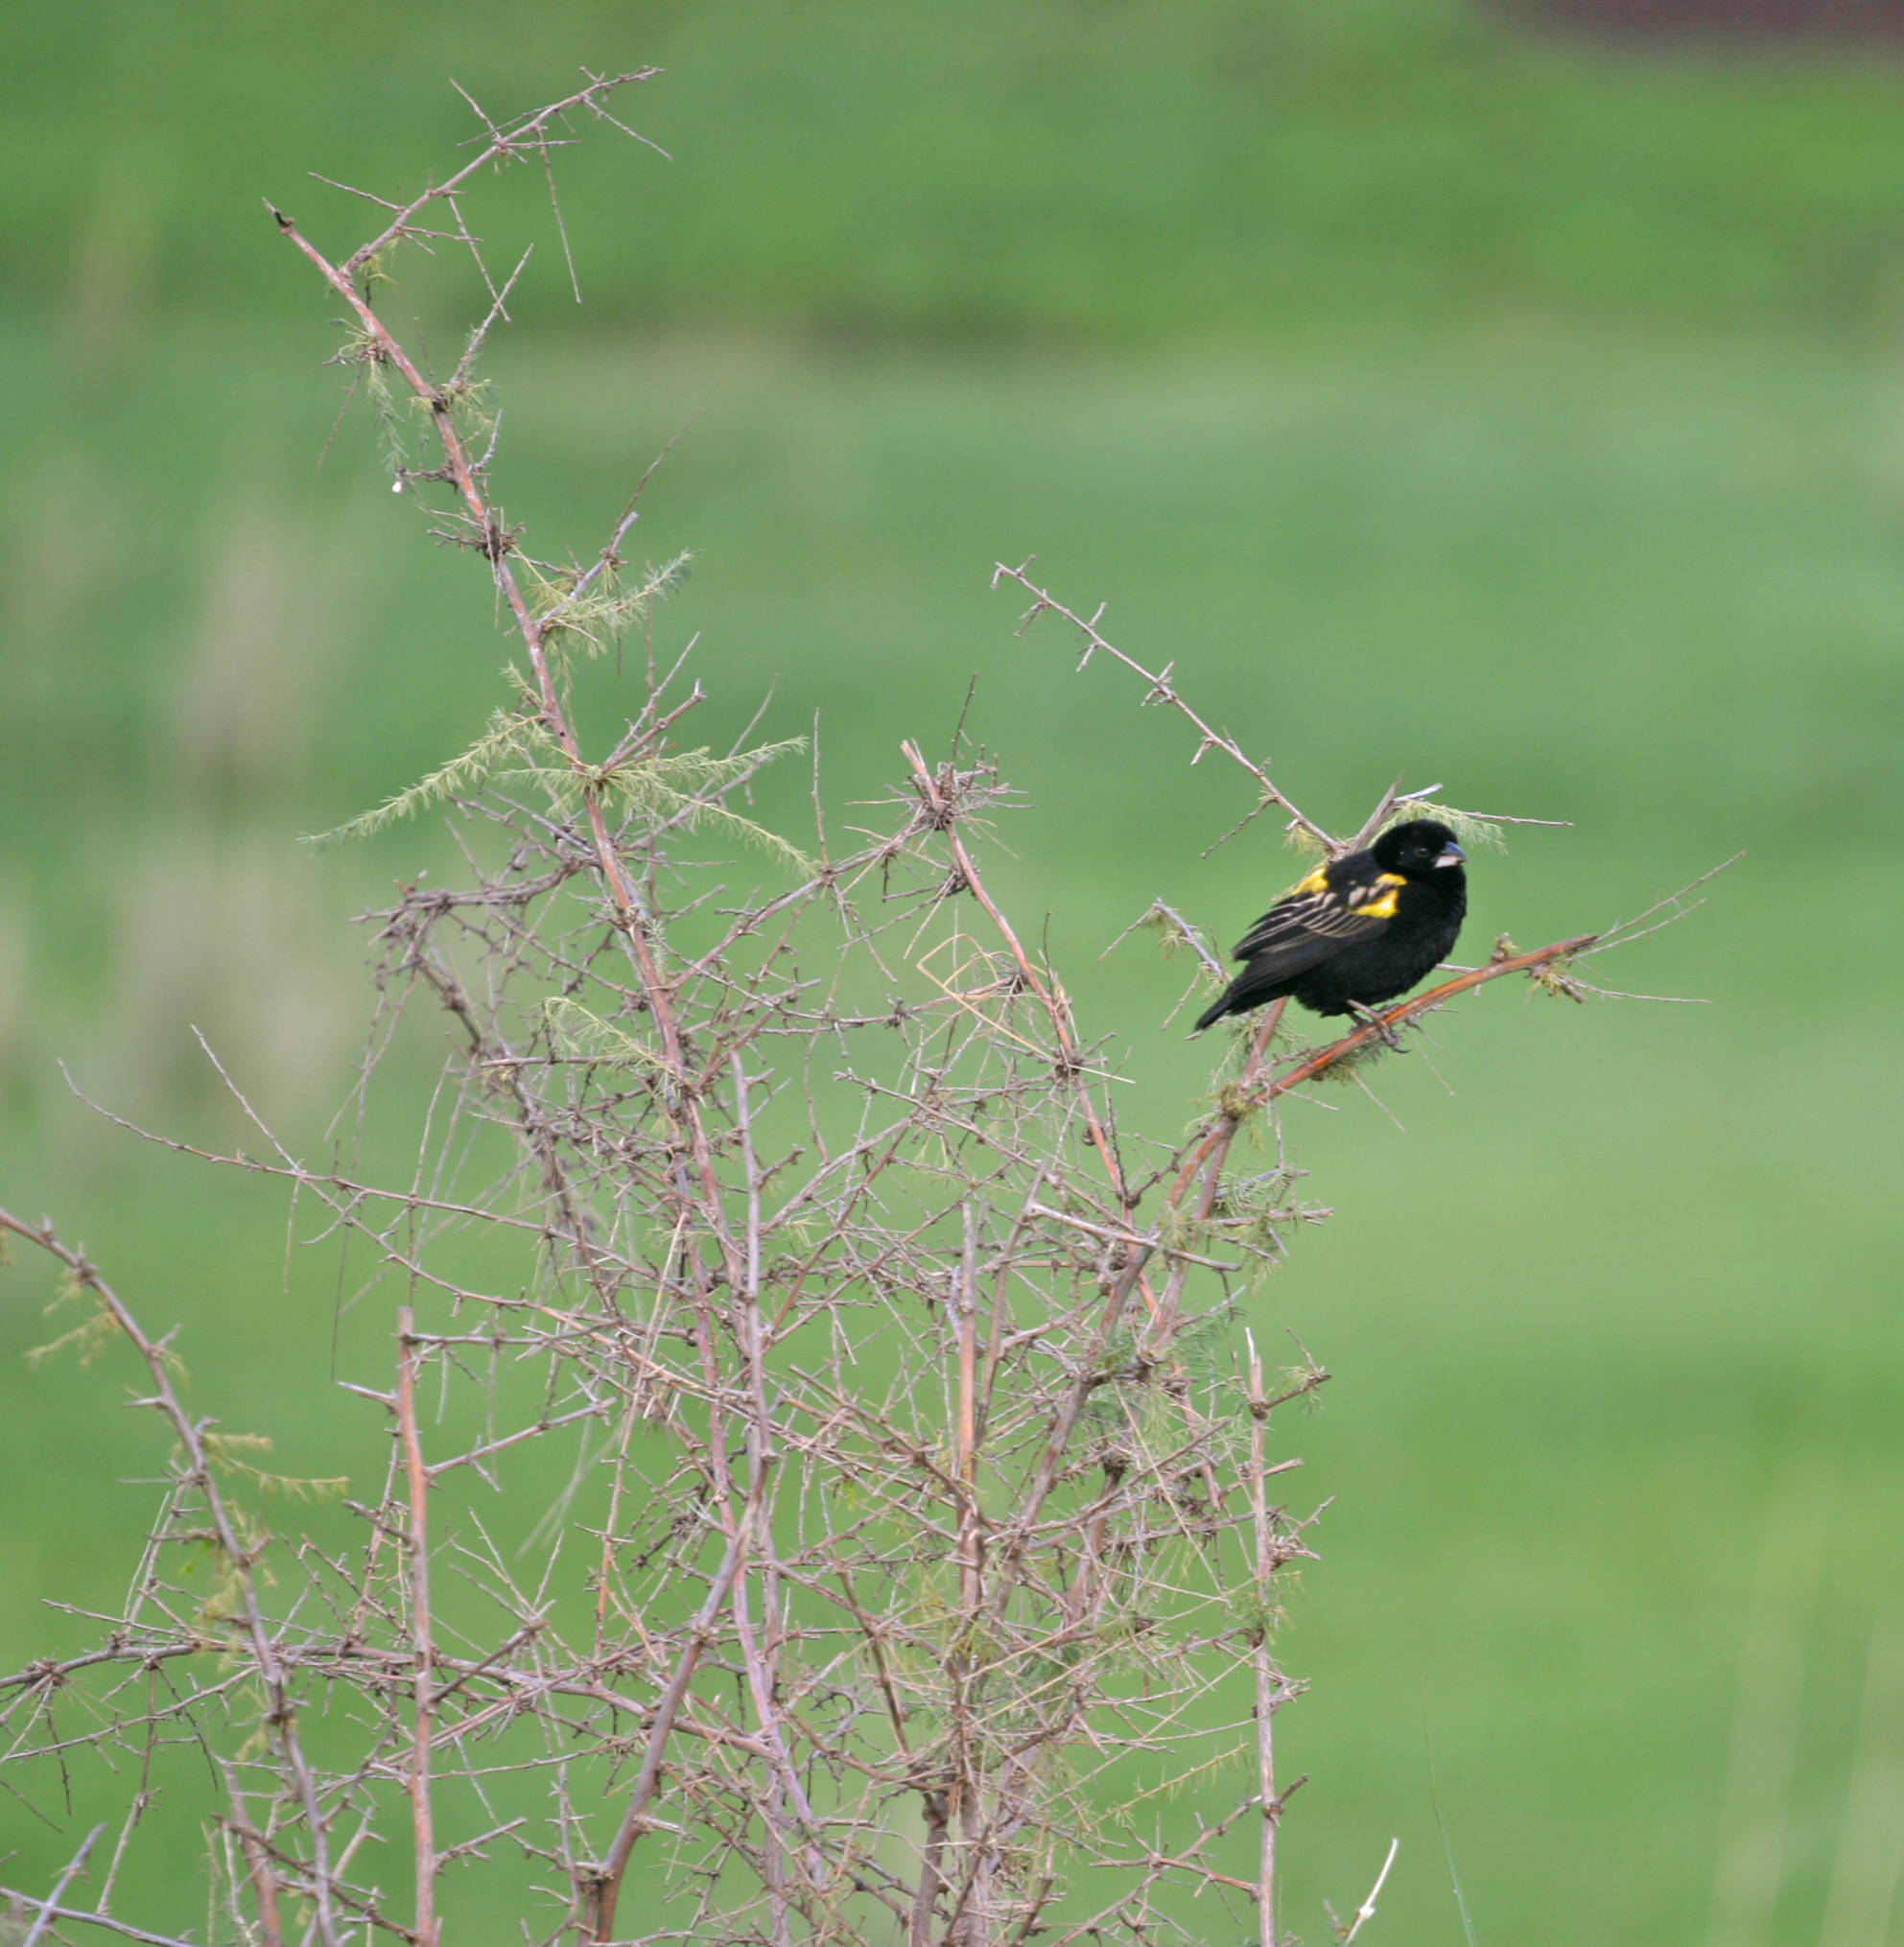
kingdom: Animalia
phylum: Chordata
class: Aves
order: Passeriformes
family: Ploceidae
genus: Euplectes
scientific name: Euplectes capensis
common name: Yellow bishop
